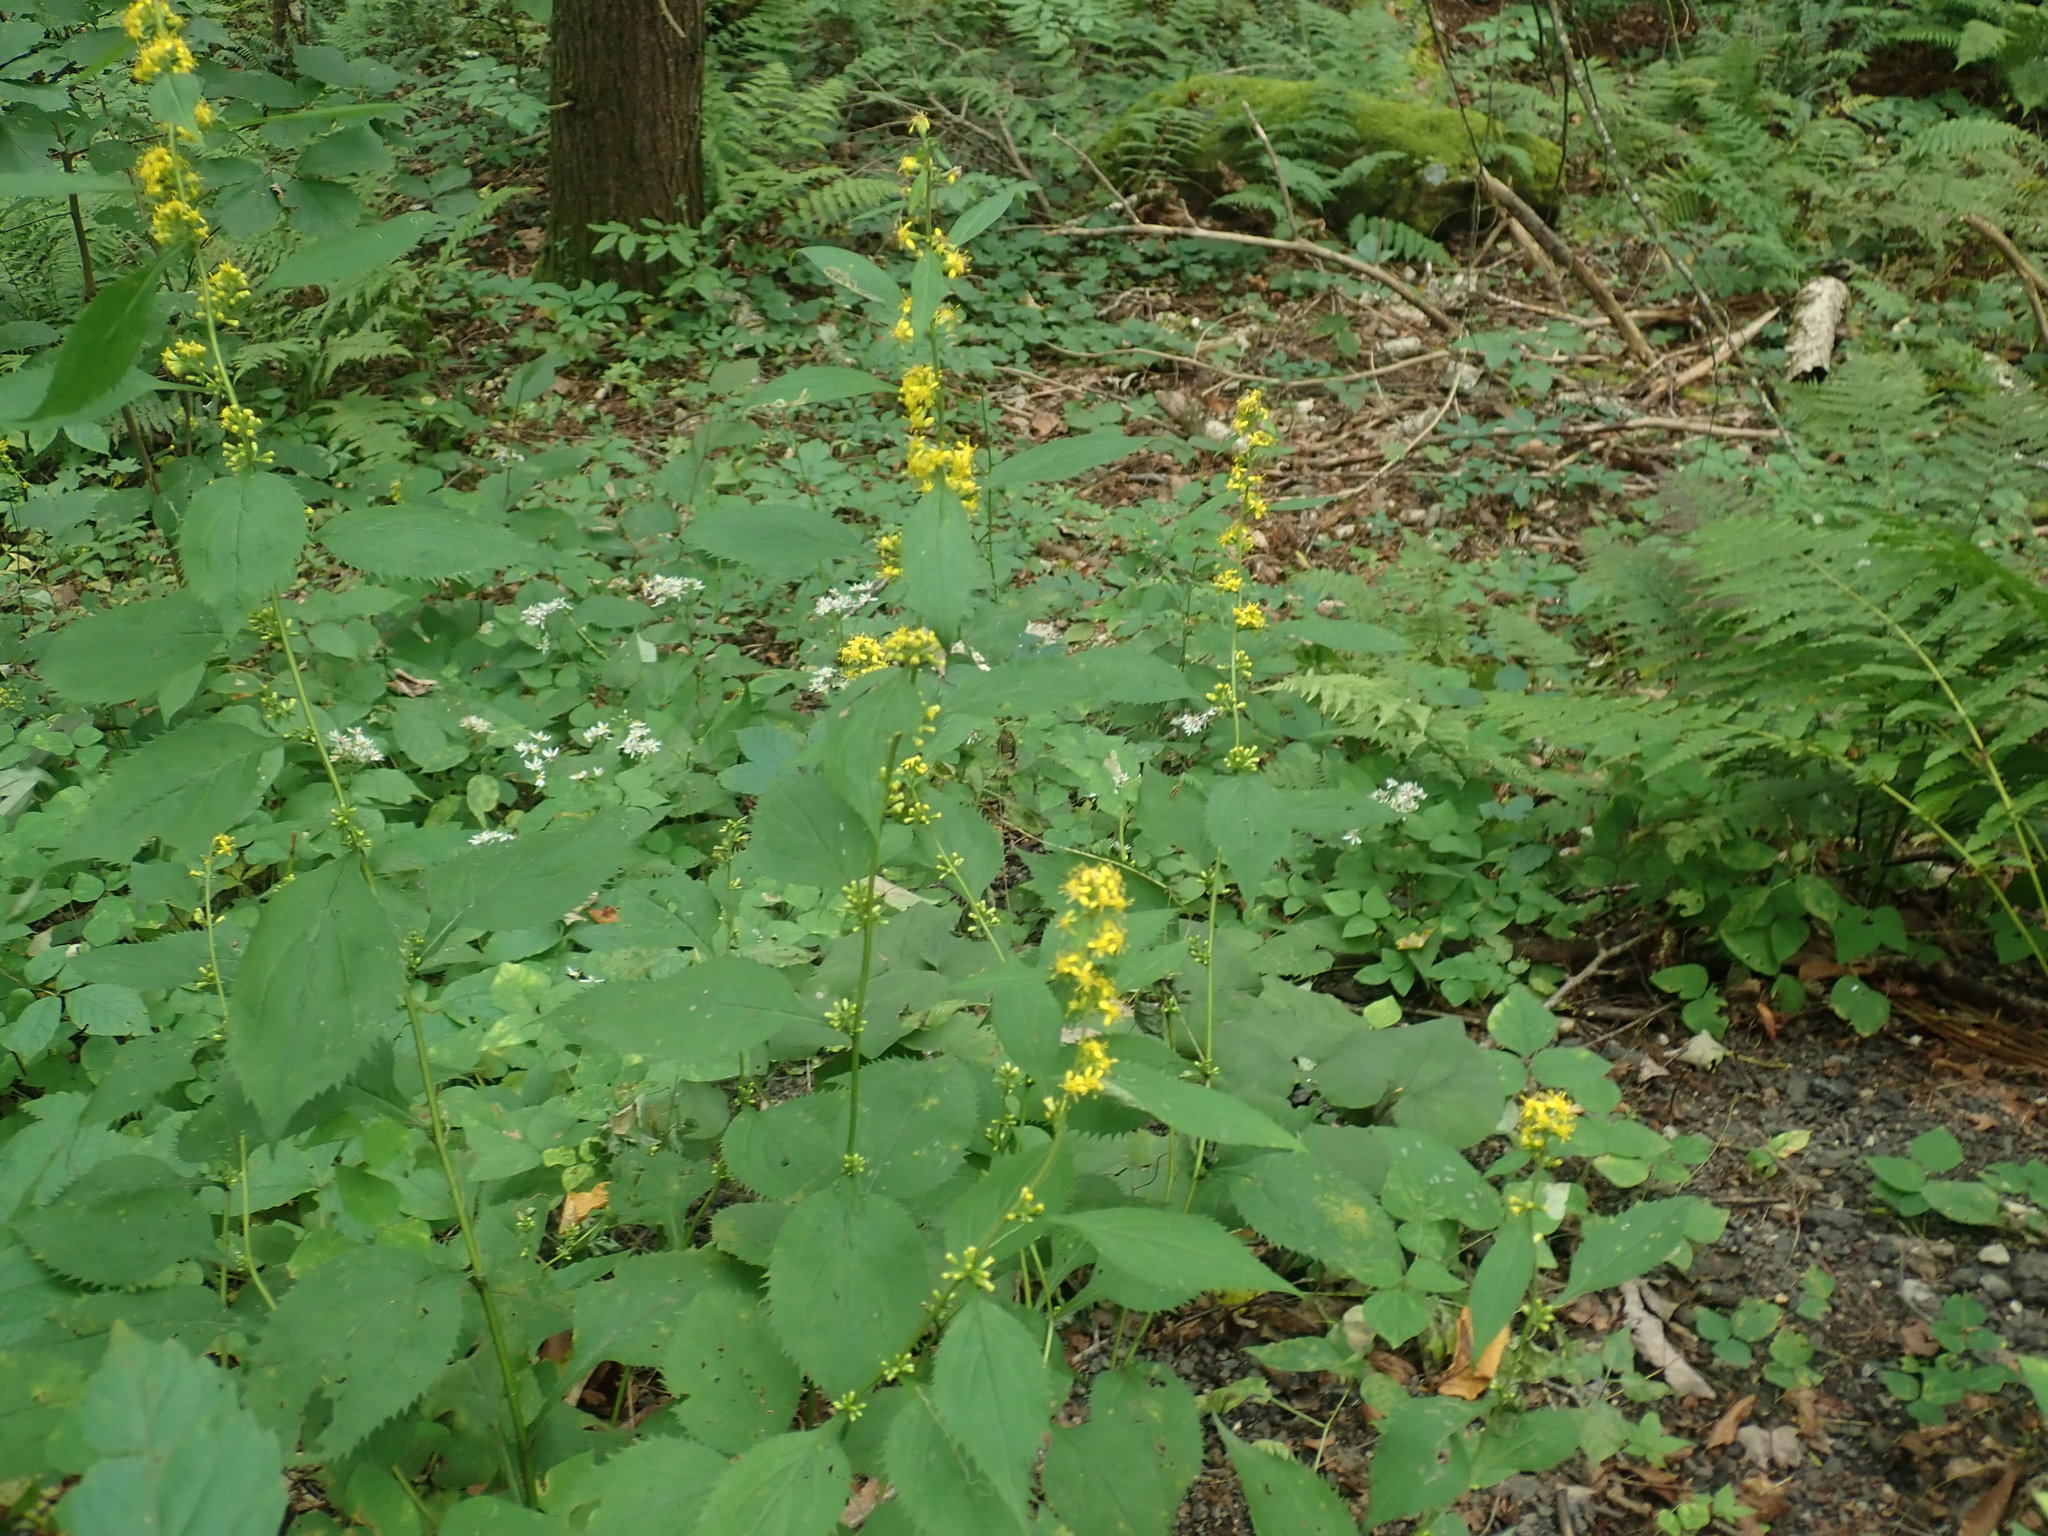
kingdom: Plantae
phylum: Tracheophyta
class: Magnoliopsida
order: Asterales
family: Asteraceae
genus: Solidago
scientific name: Solidago flexicaulis
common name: Zig-zag goldenrod
